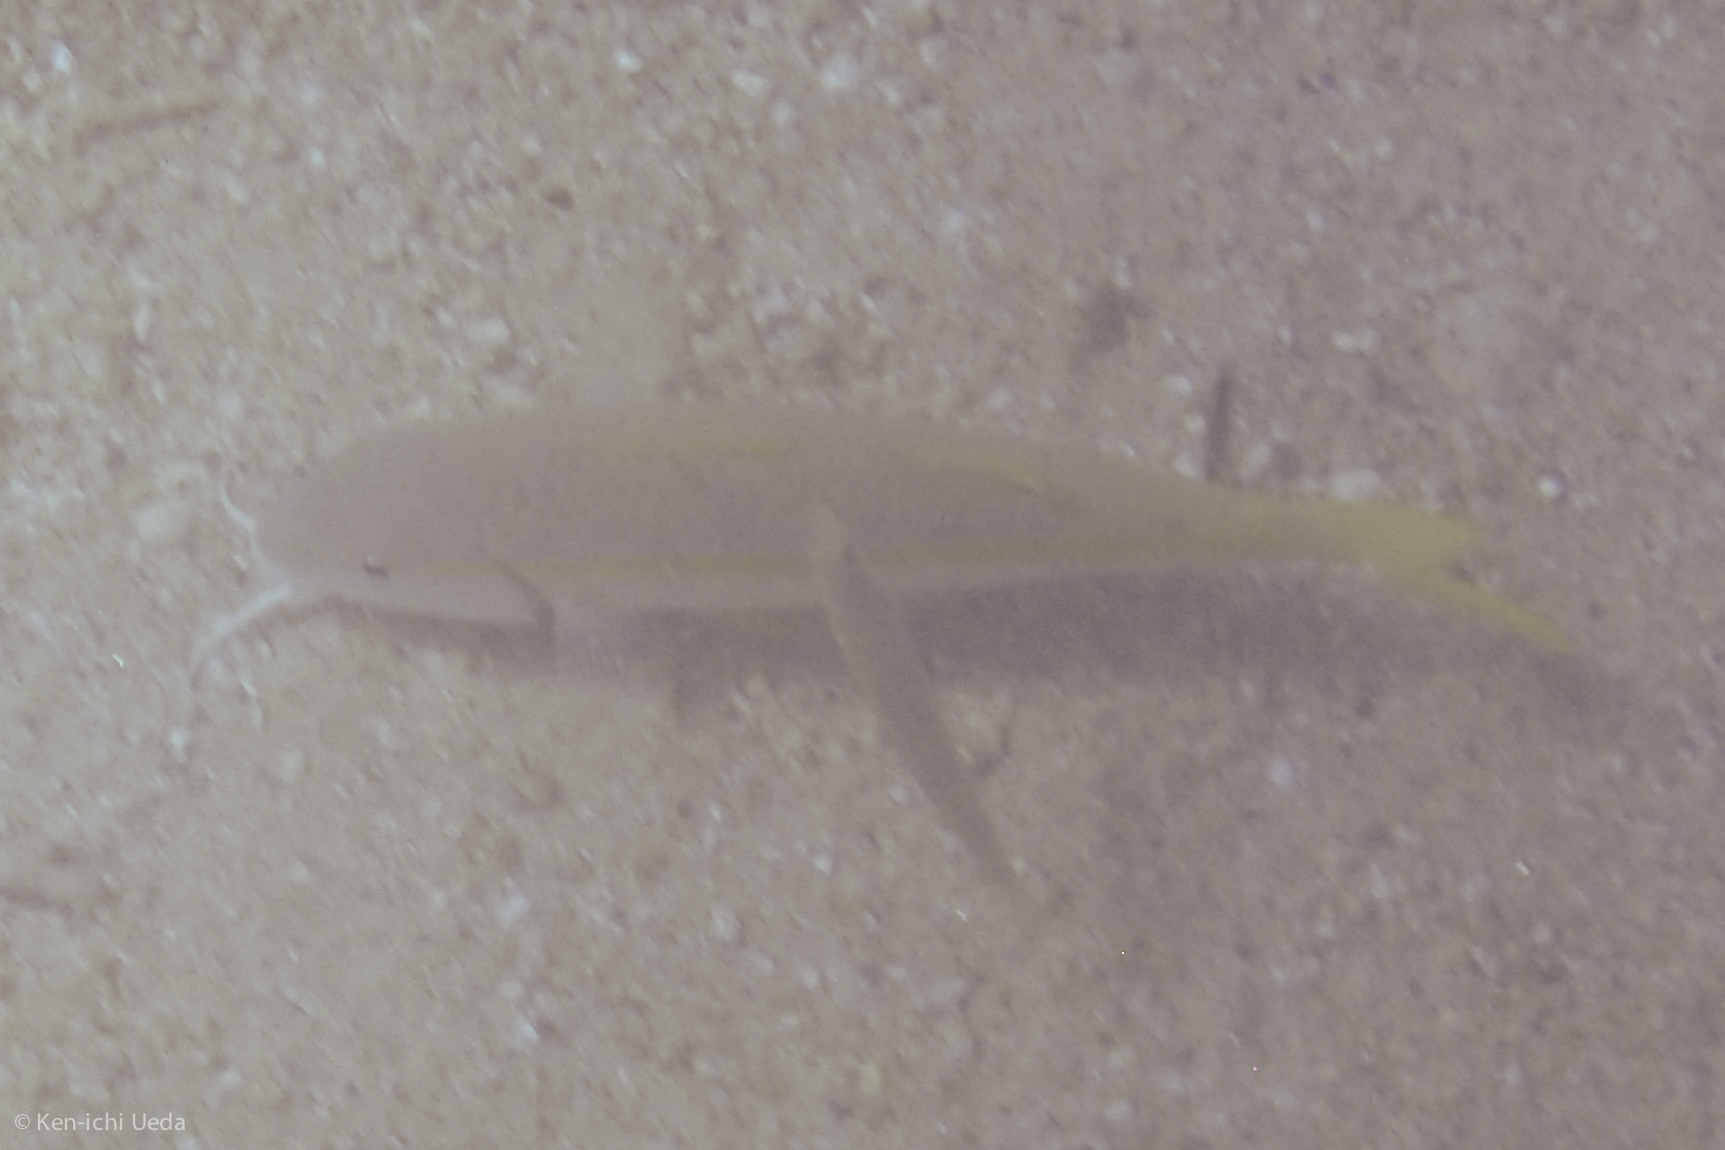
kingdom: Animalia
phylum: Chordata
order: Perciformes
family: Mullidae
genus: Mulloidichthys
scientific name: Mulloidichthys dentatus
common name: Mexican goatfish
